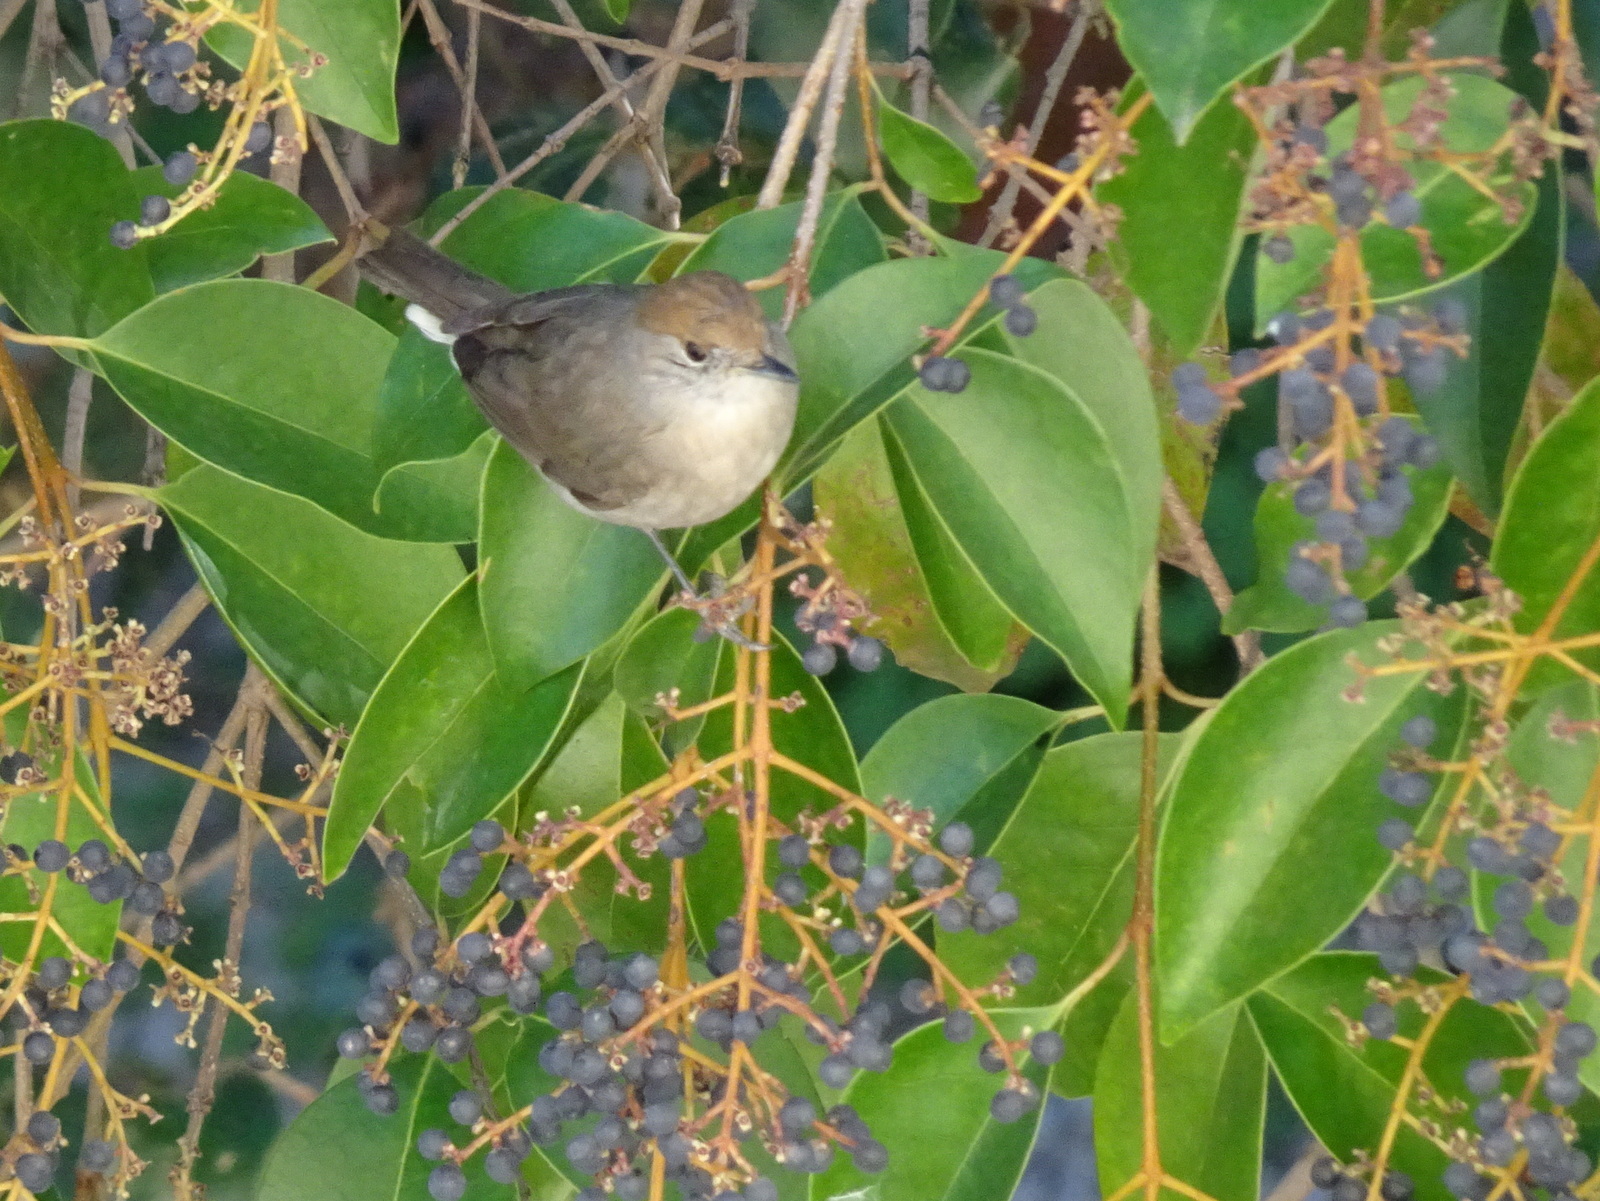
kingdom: Animalia
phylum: Chordata
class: Aves
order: Passeriformes
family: Sylviidae
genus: Sylvia
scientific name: Sylvia atricapilla
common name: Eurasian blackcap
